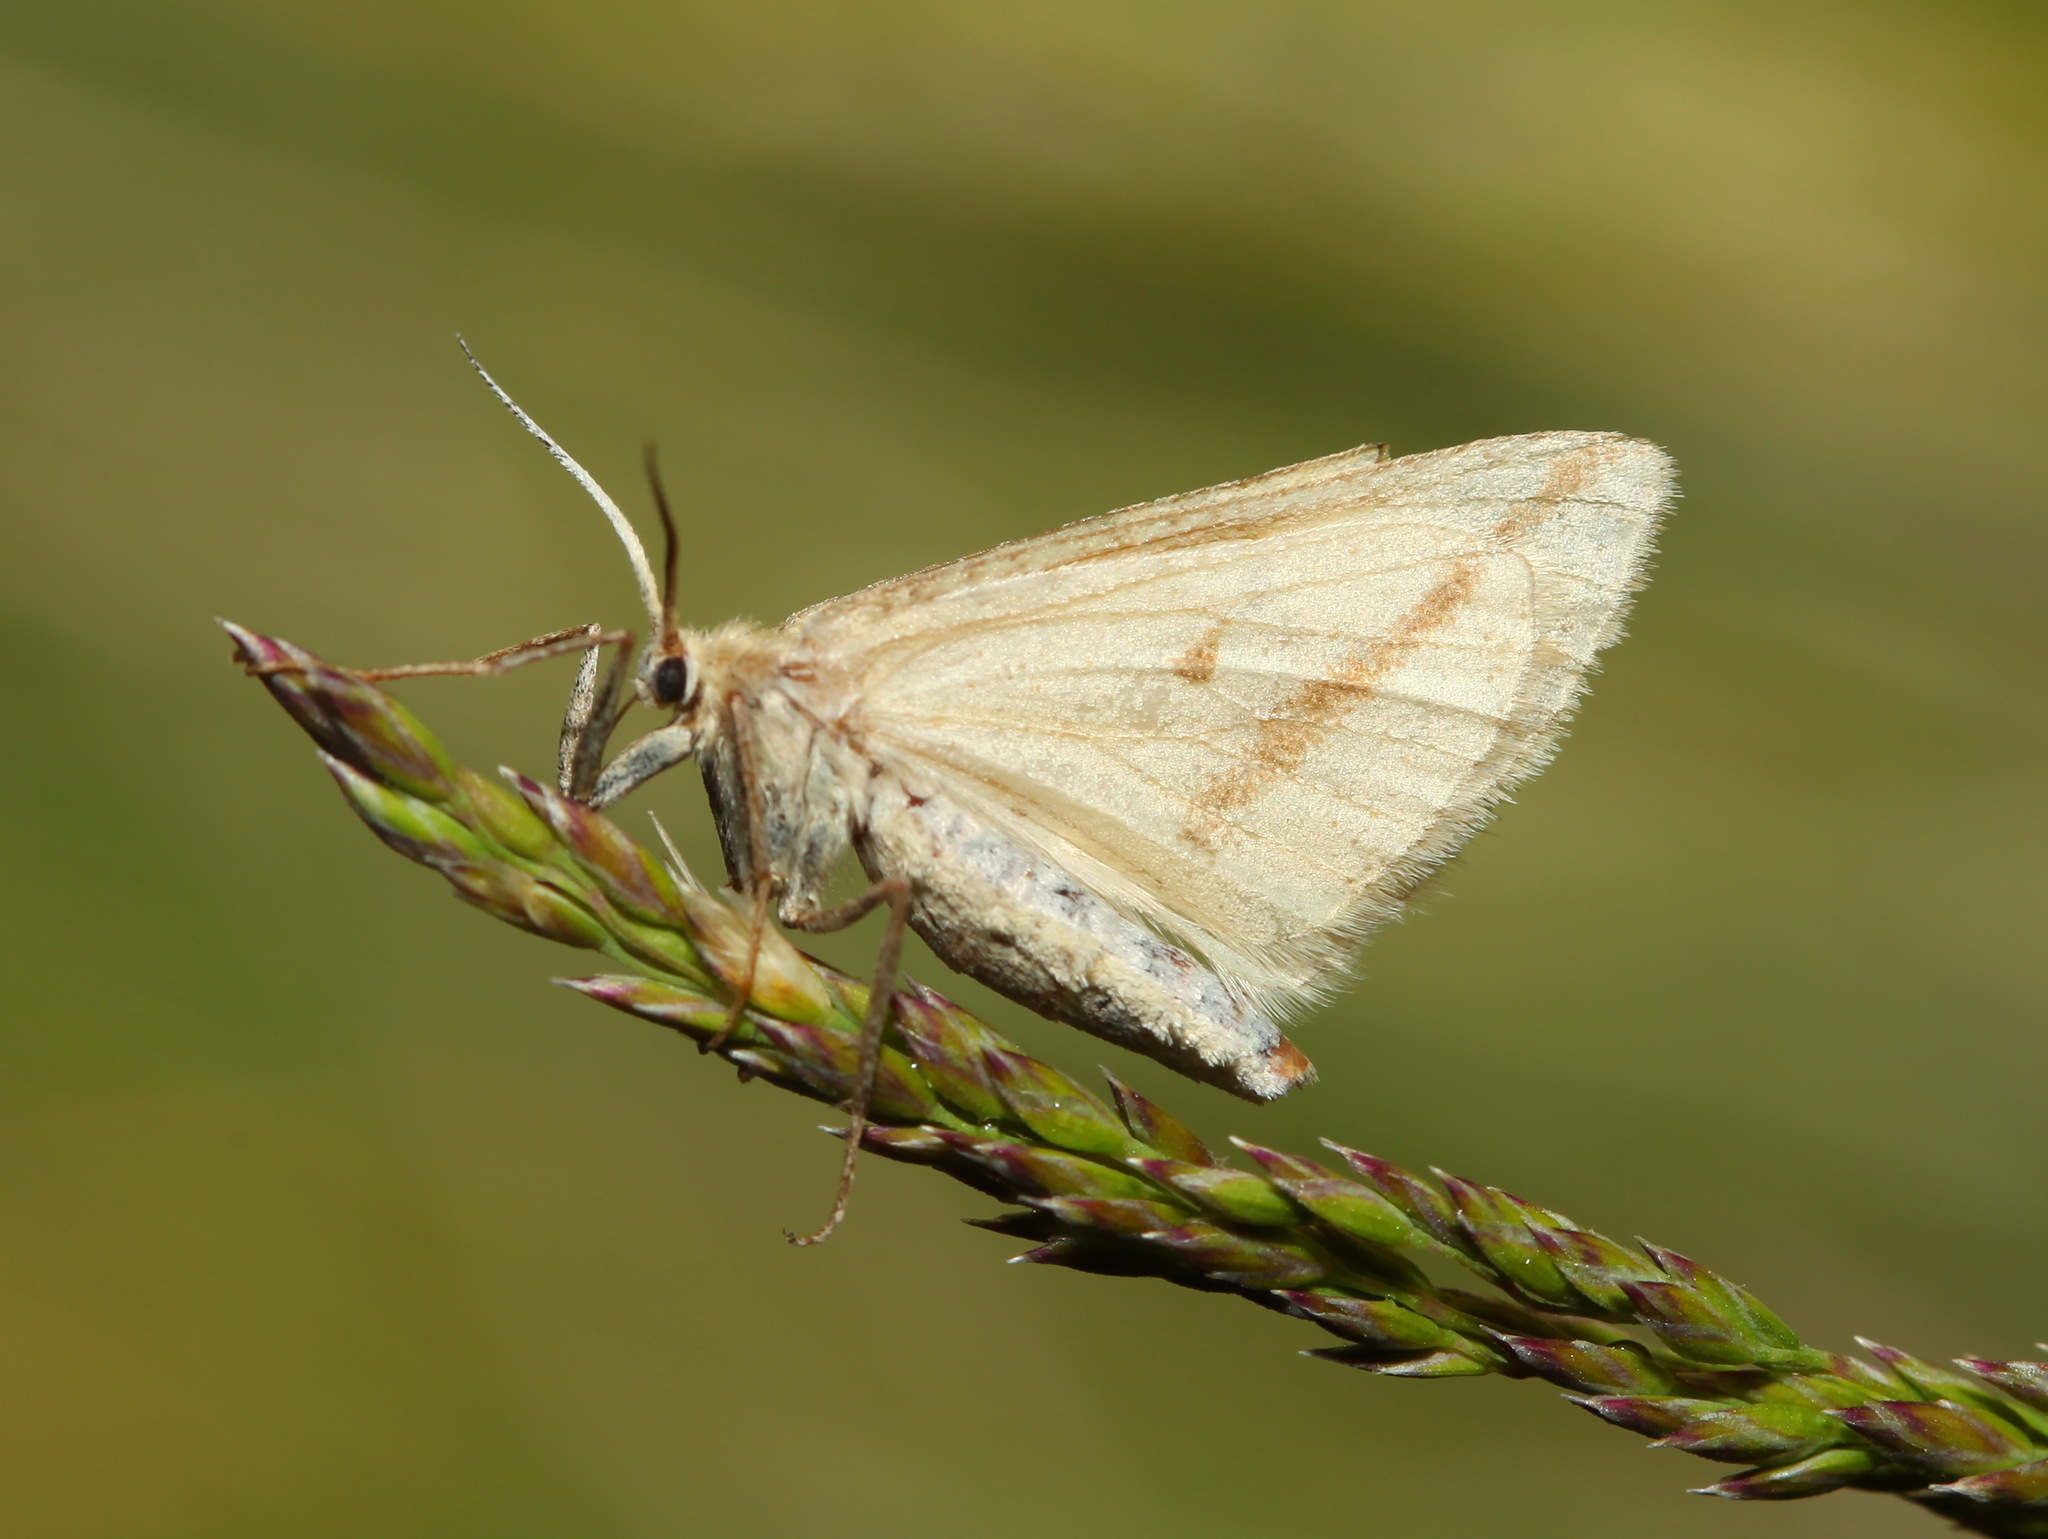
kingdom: Animalia
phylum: Arthropoda
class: Insecta
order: Lepidoptera
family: Geometridae
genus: Aspitates
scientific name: Aspitates albaria
